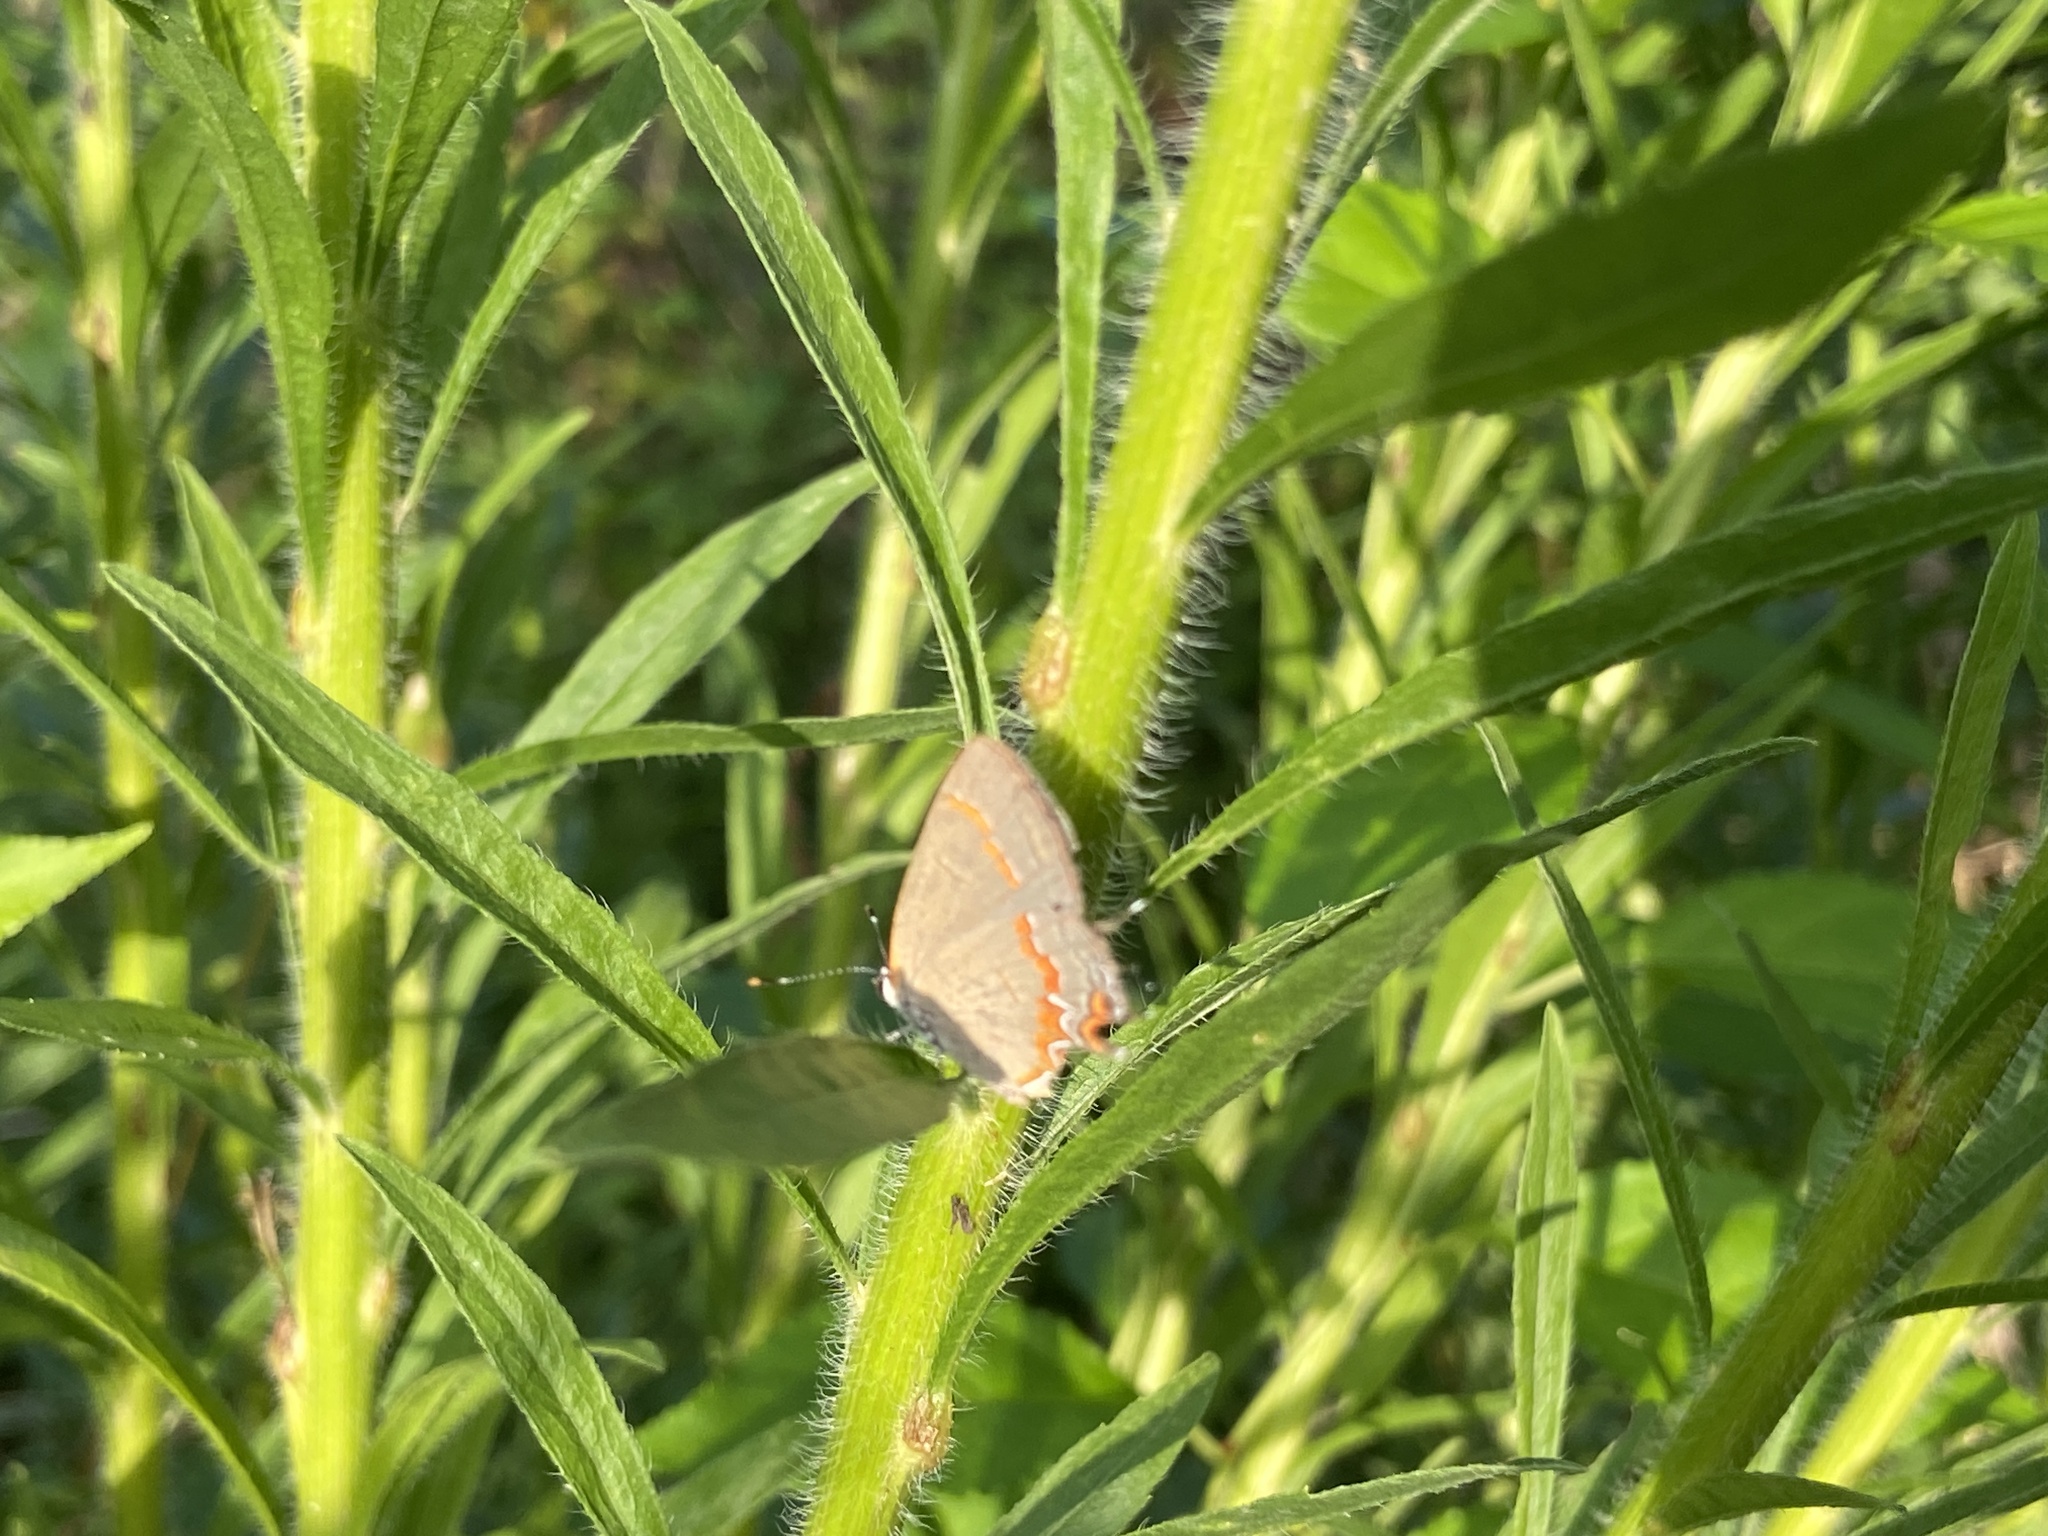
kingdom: Animalia
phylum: Arthropoda
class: Insecta
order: Lepidoptera
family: Lycaenidae
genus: Calycopis
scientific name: Calycopis cecrops
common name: Red-banded hairstreak
